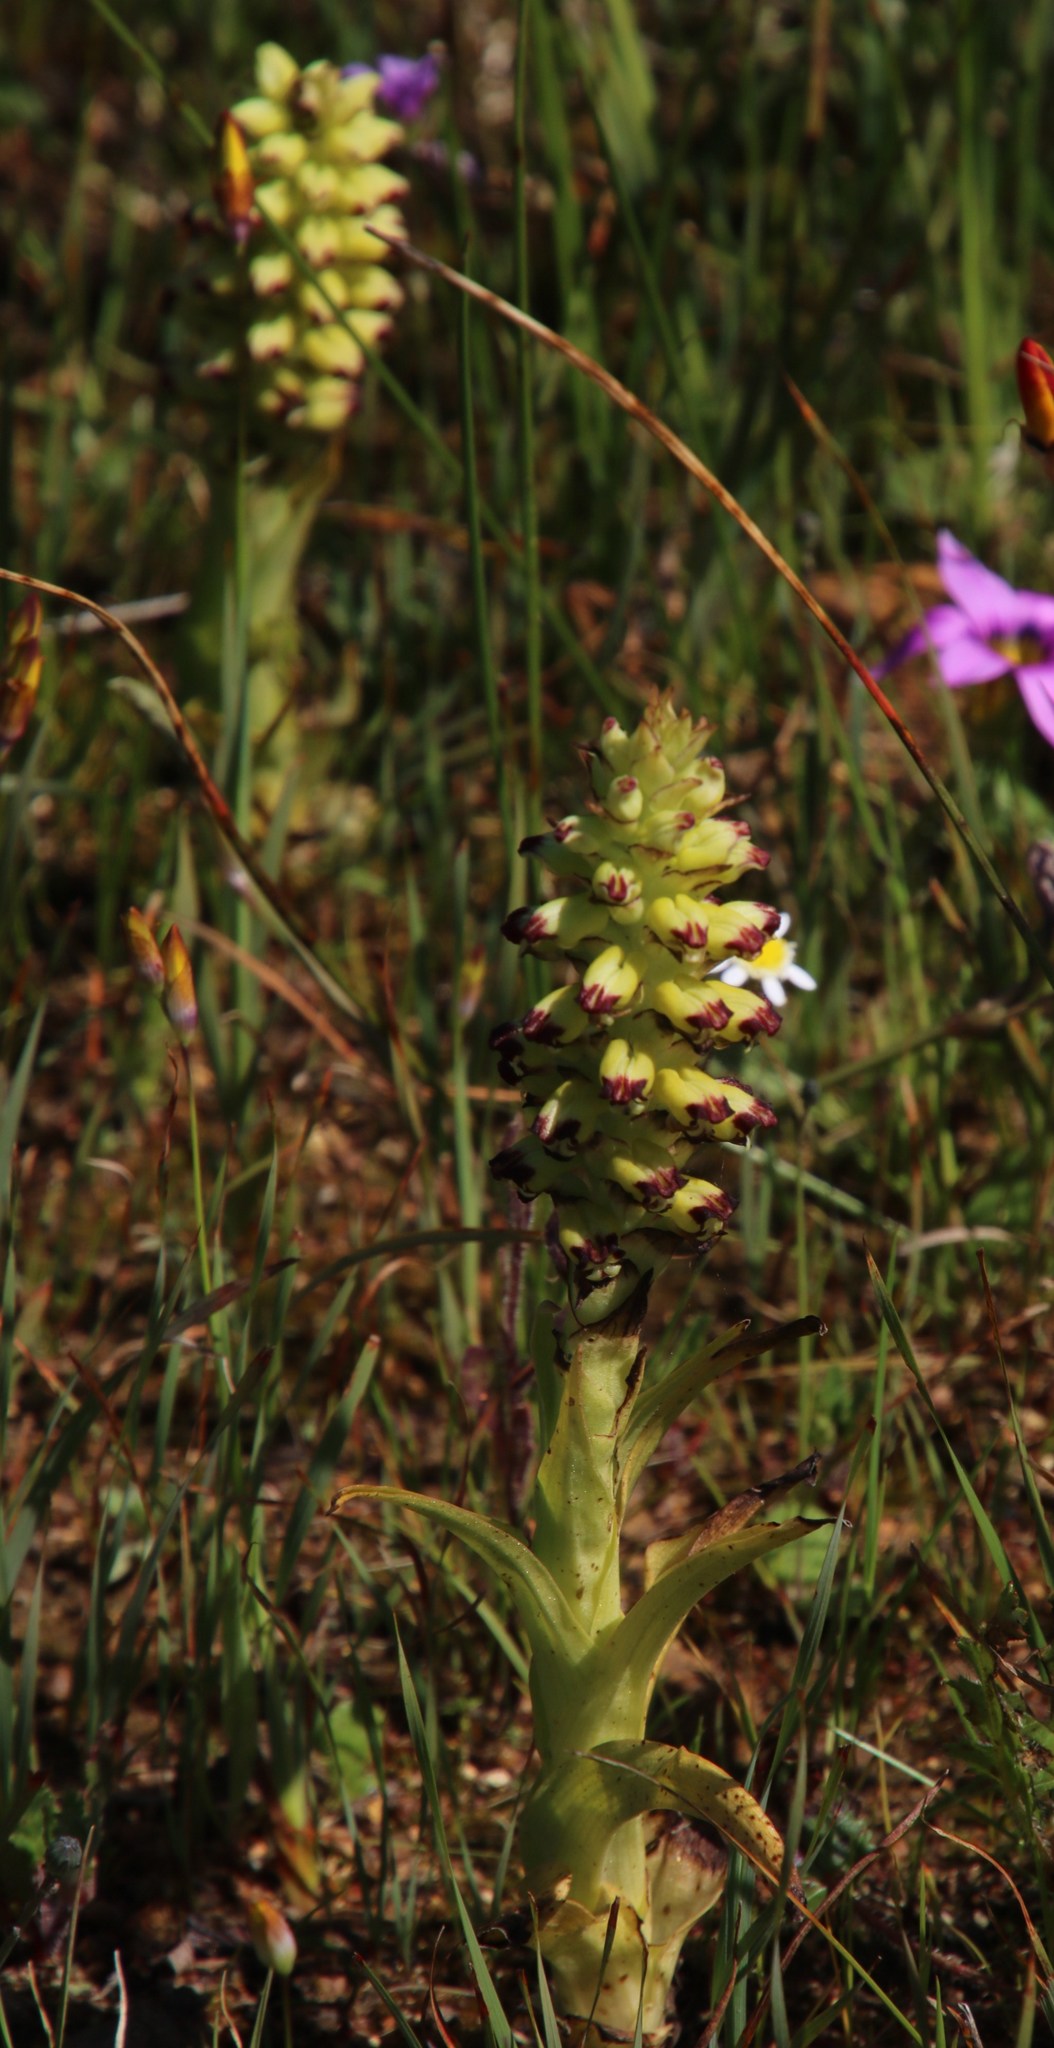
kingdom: Plantae
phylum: Tracheophyta
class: Liliopsida
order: Asparagales
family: Orchidaceae
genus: Corycium
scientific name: Corycium orobanchoides
